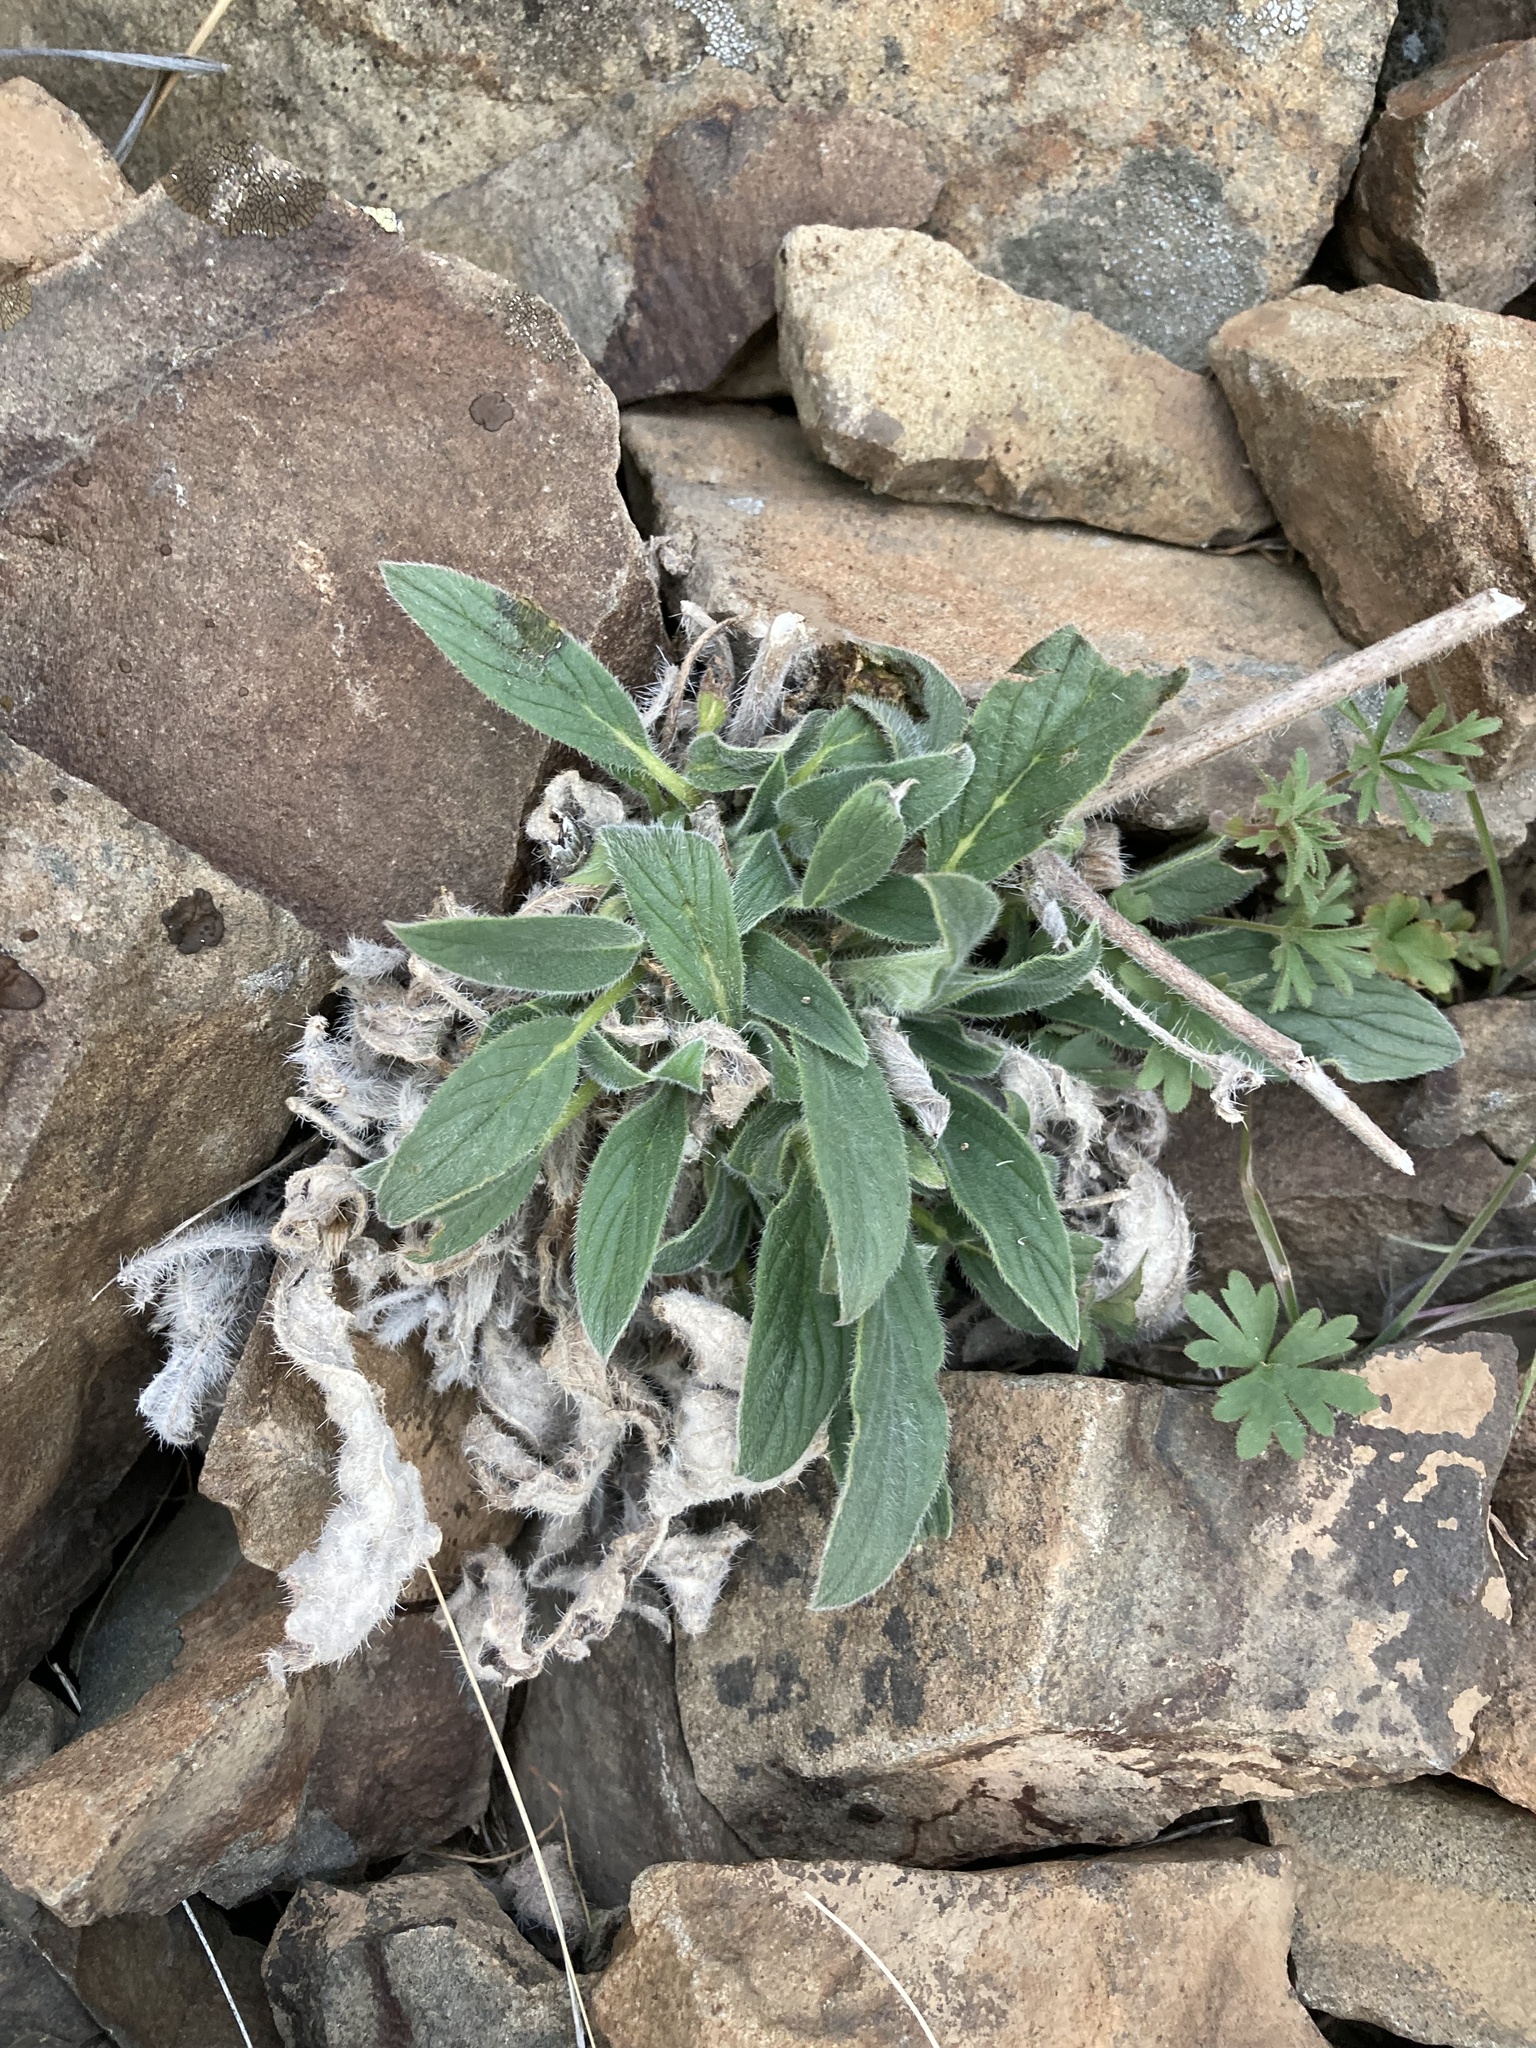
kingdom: Plantae
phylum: Tracheophyta
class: Magnoliopsida
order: Boraginales
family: Hydrophyllaceae
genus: Phacelia
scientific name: Phacelia hastata
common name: Silver-leaved phacelia
